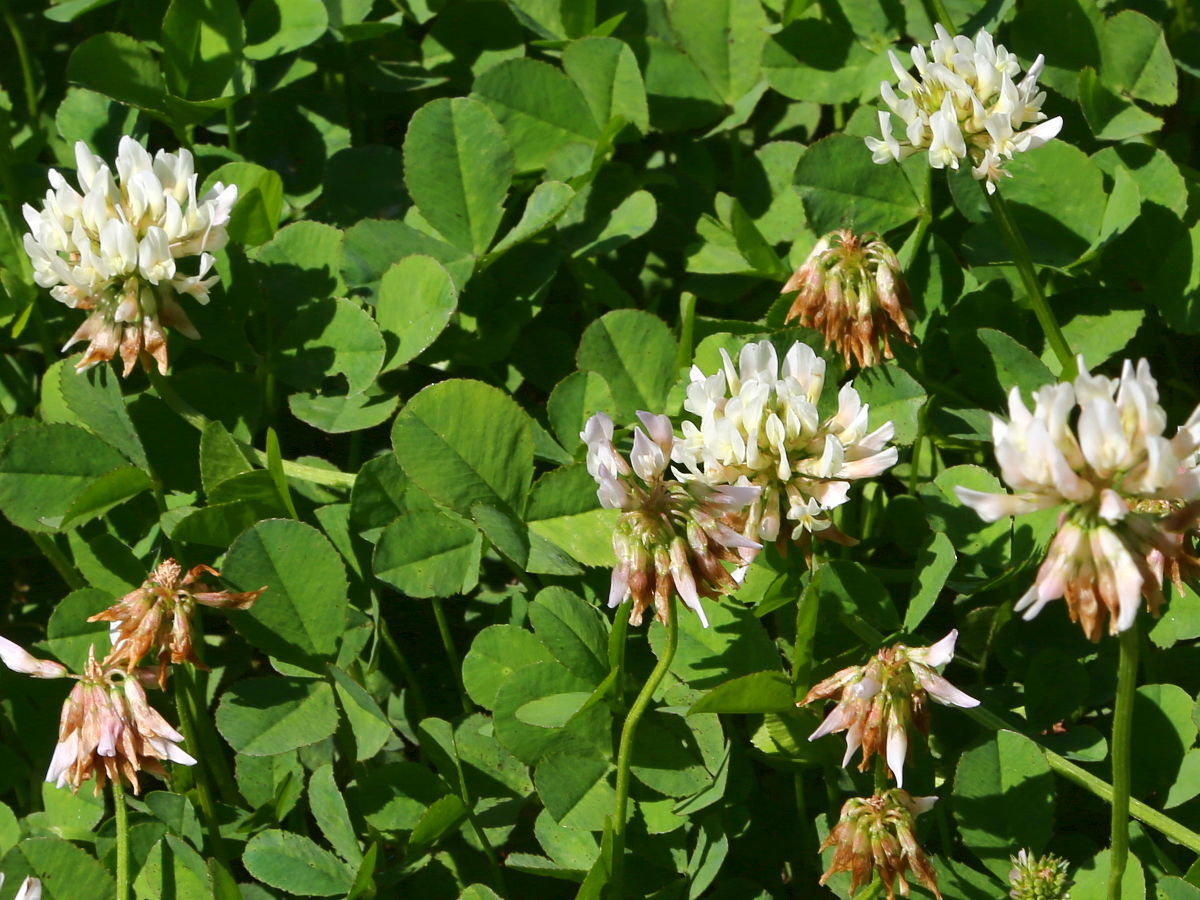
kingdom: Plantae
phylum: Tracheophyta
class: Magnoliopsida
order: Fabales
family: Fabaceae
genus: Trifolium
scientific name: Trifolium repens
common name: White clover
